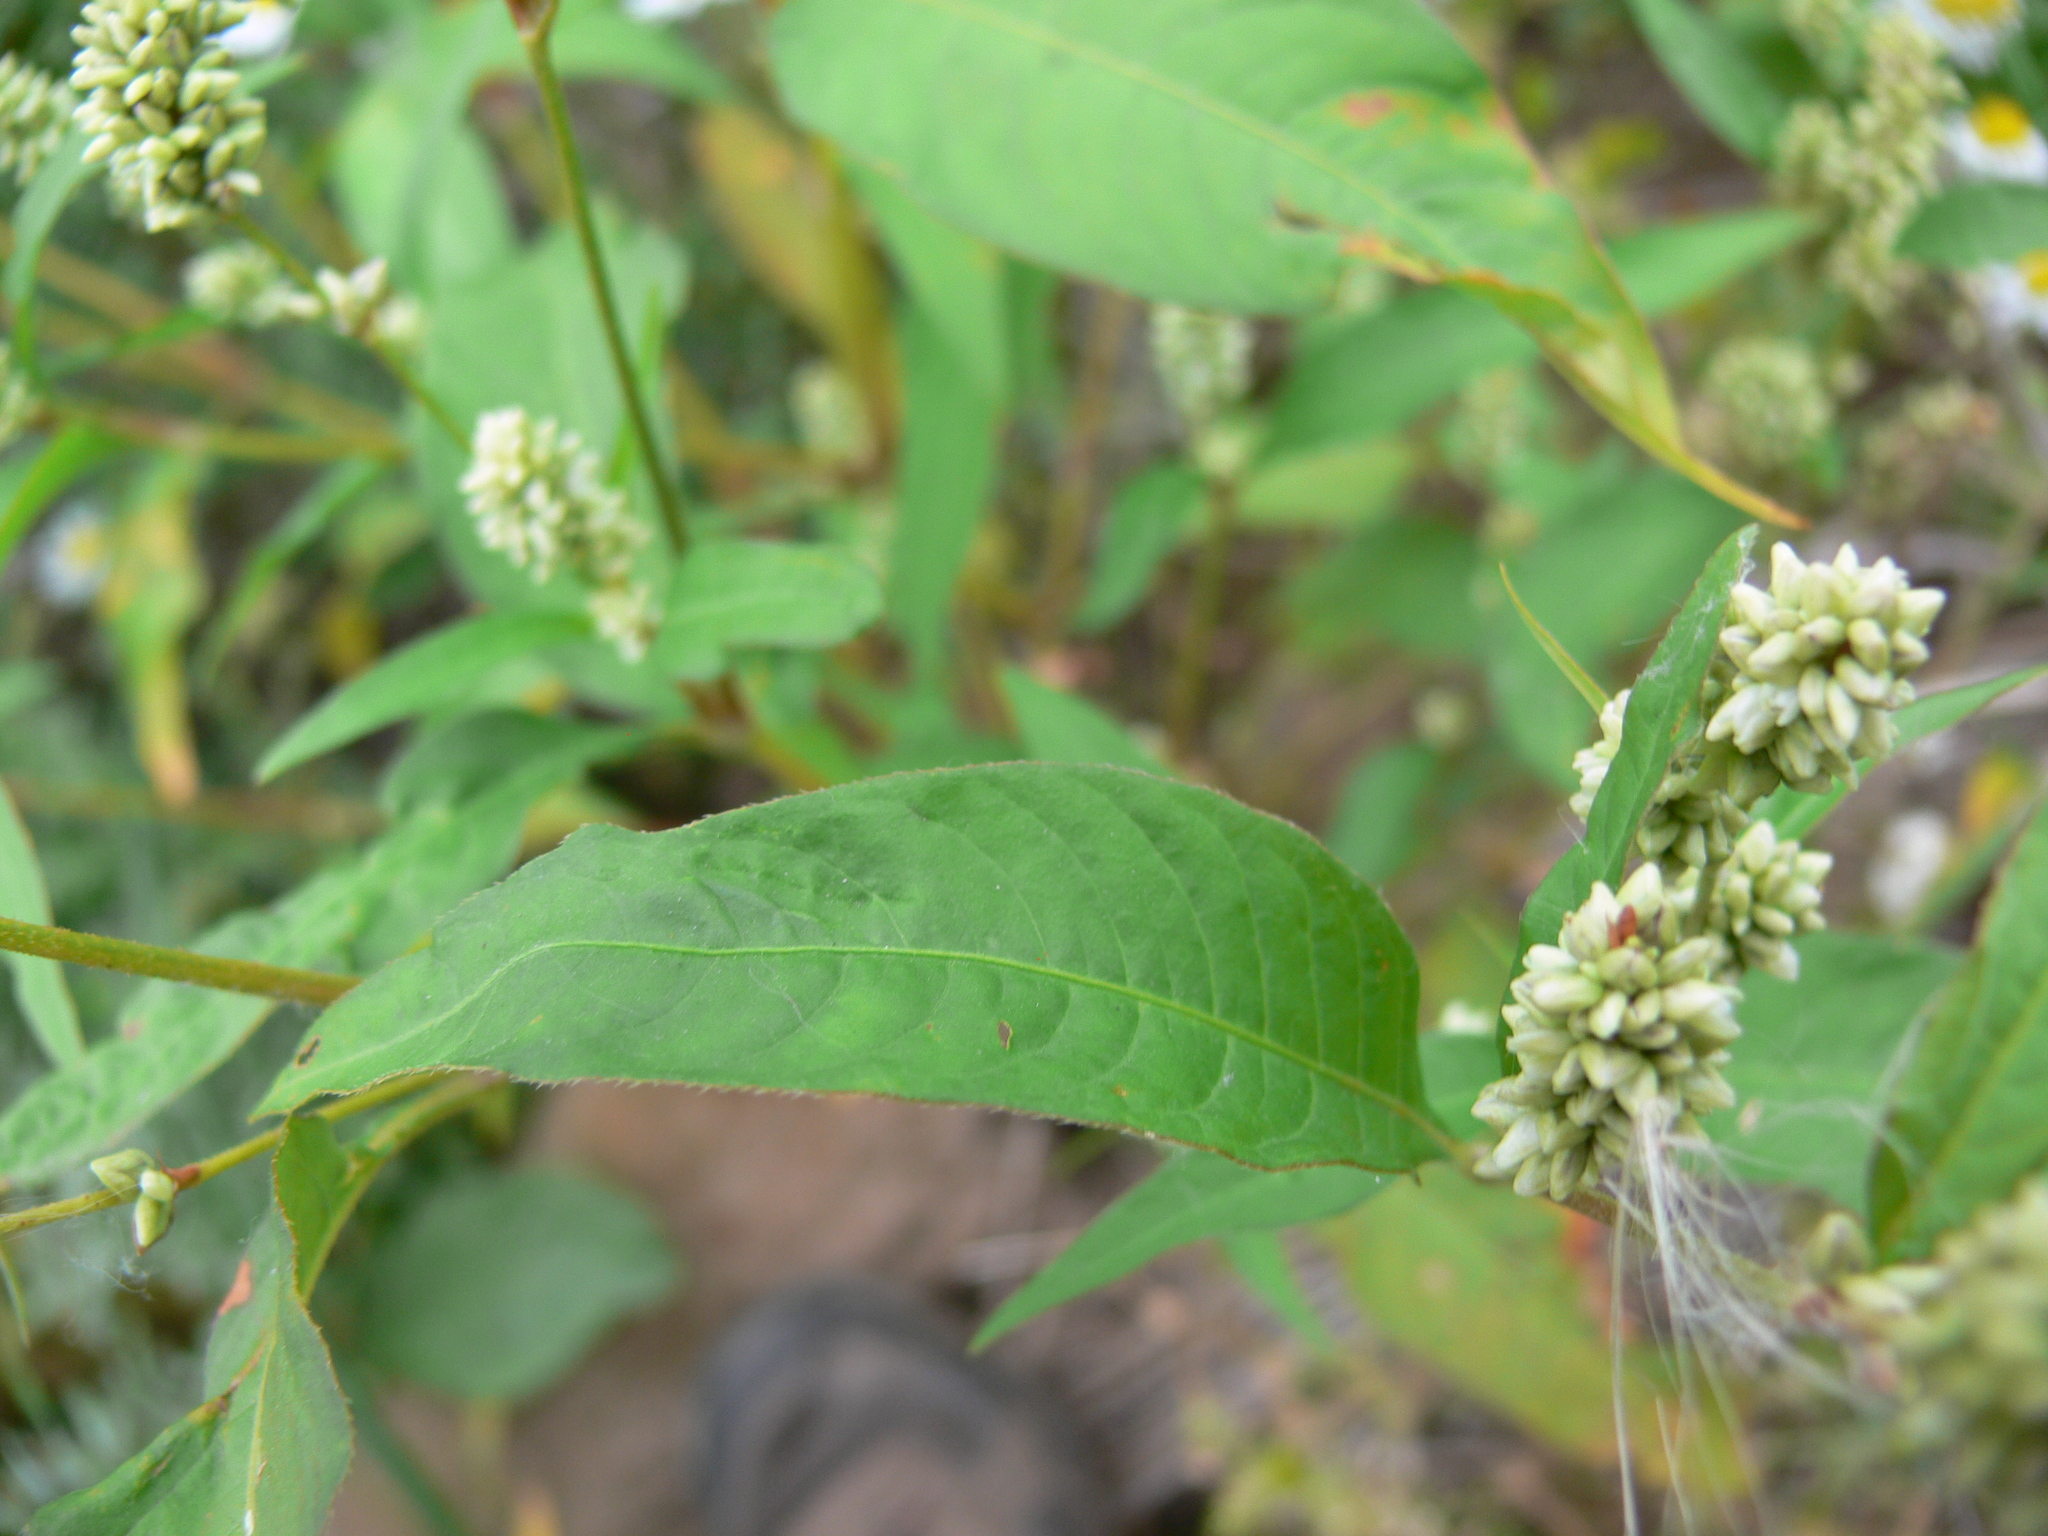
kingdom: Plantae
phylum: Tracheophyta
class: Magnoliopsida
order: Caryophyllales
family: Polygonaceae
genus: Persicaria
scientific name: Persicaria lapathifolia
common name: Curlytop knotweed
